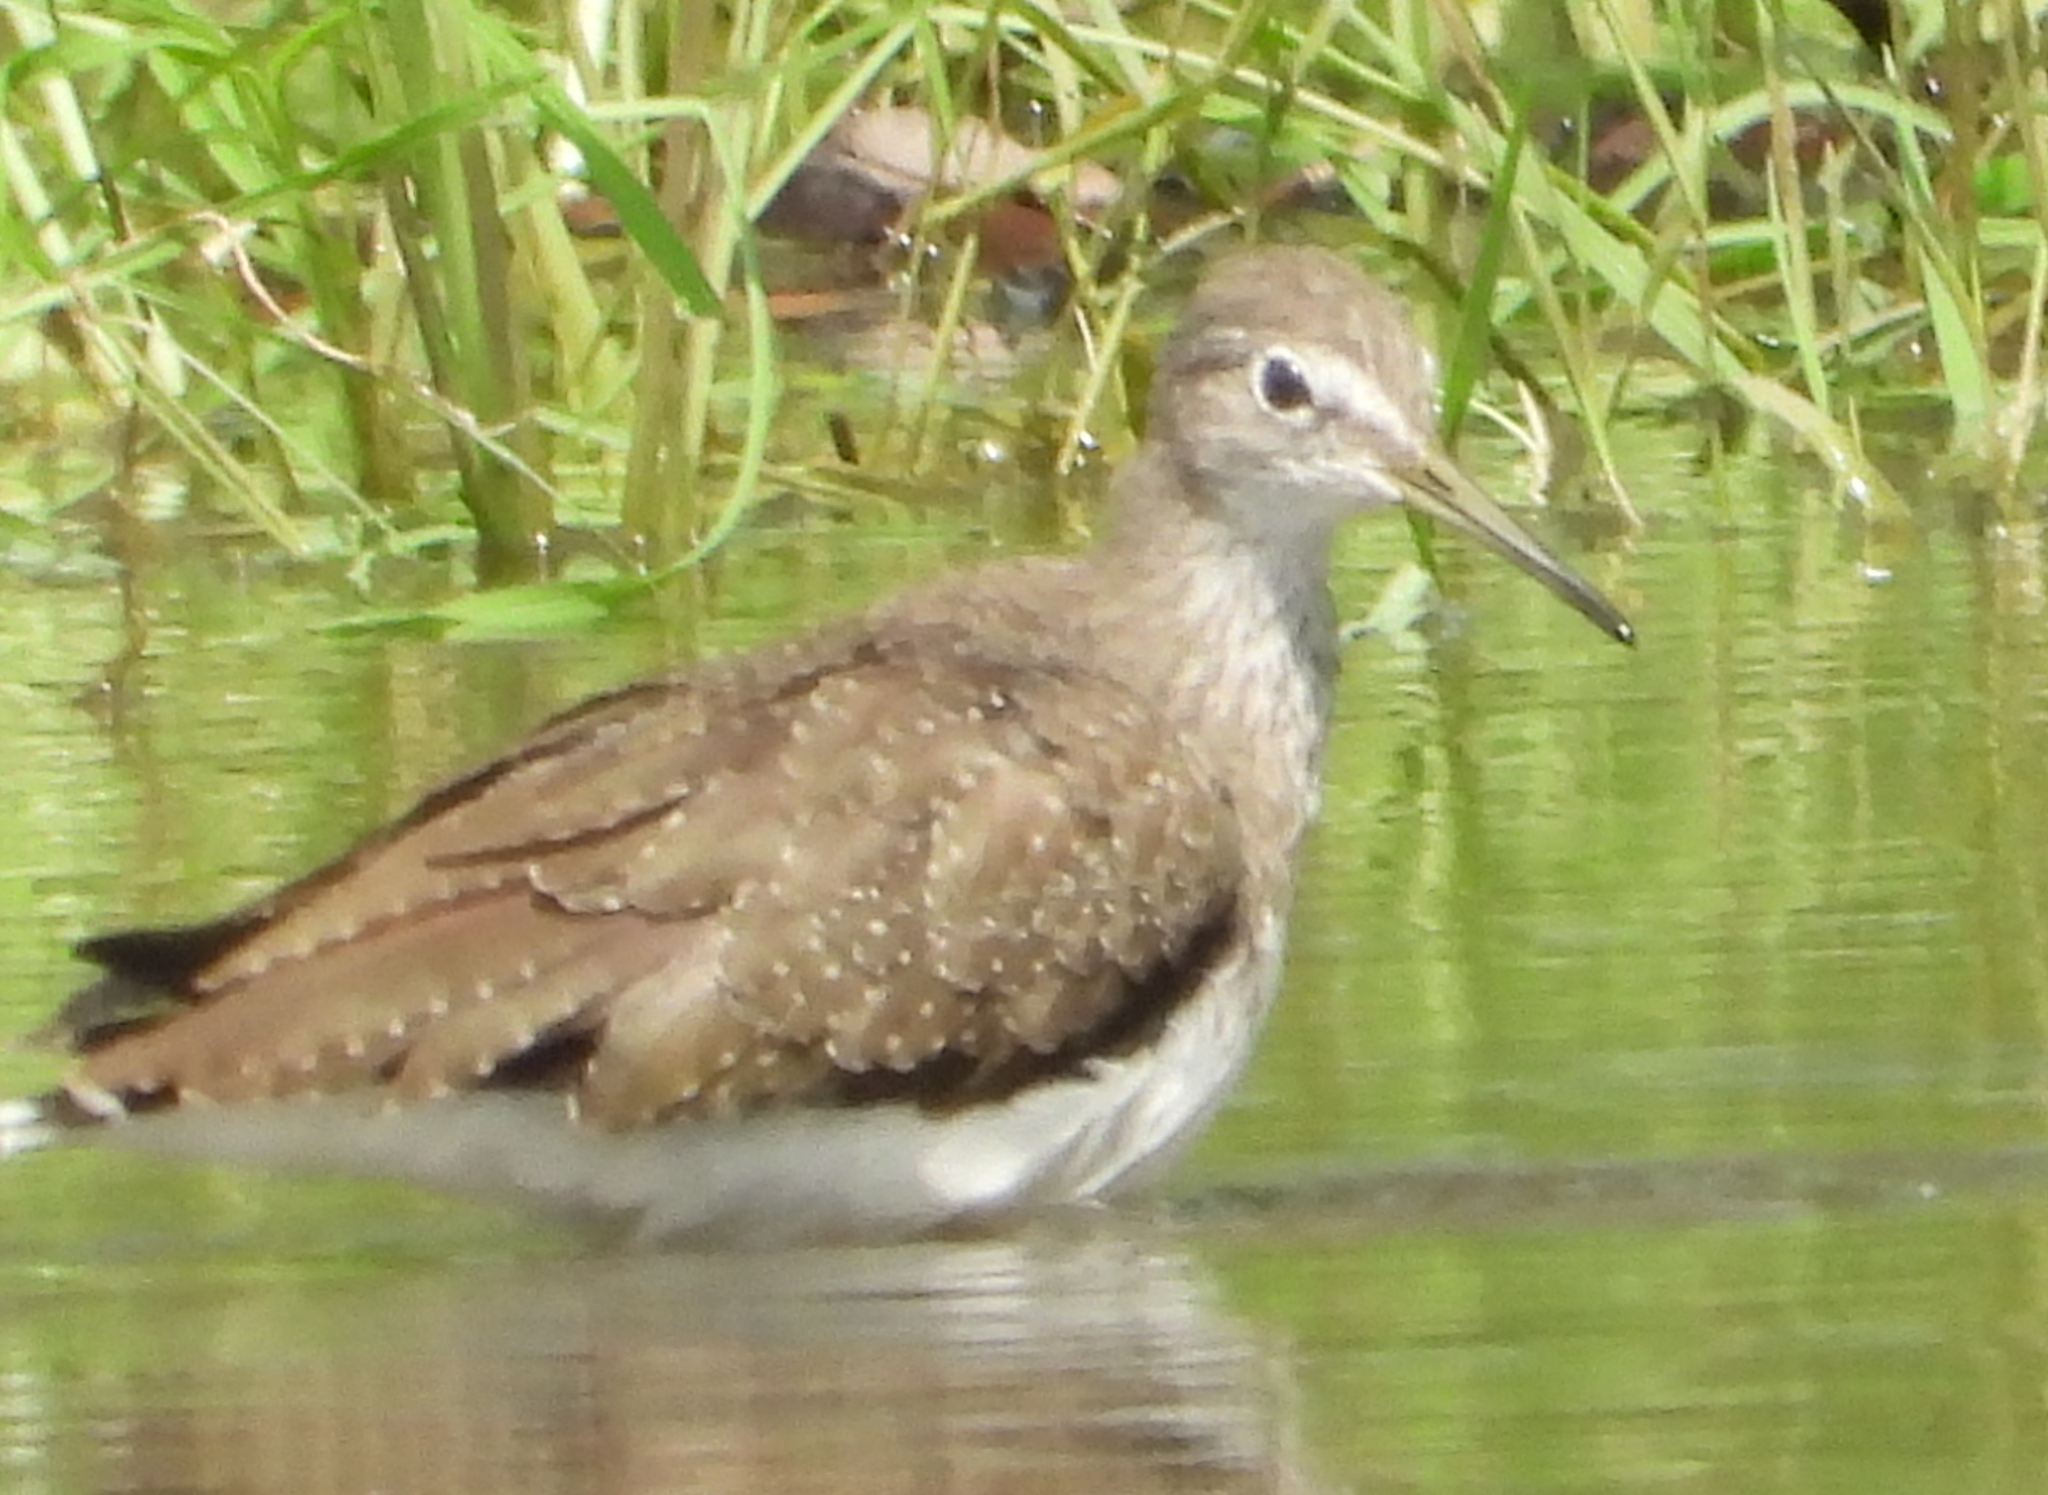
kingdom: Animalia
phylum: Chordata
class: Aves
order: Charadriiformes
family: Scolopacidae
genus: Tringa
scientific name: Tringa ochropus
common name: Green sandpiper
